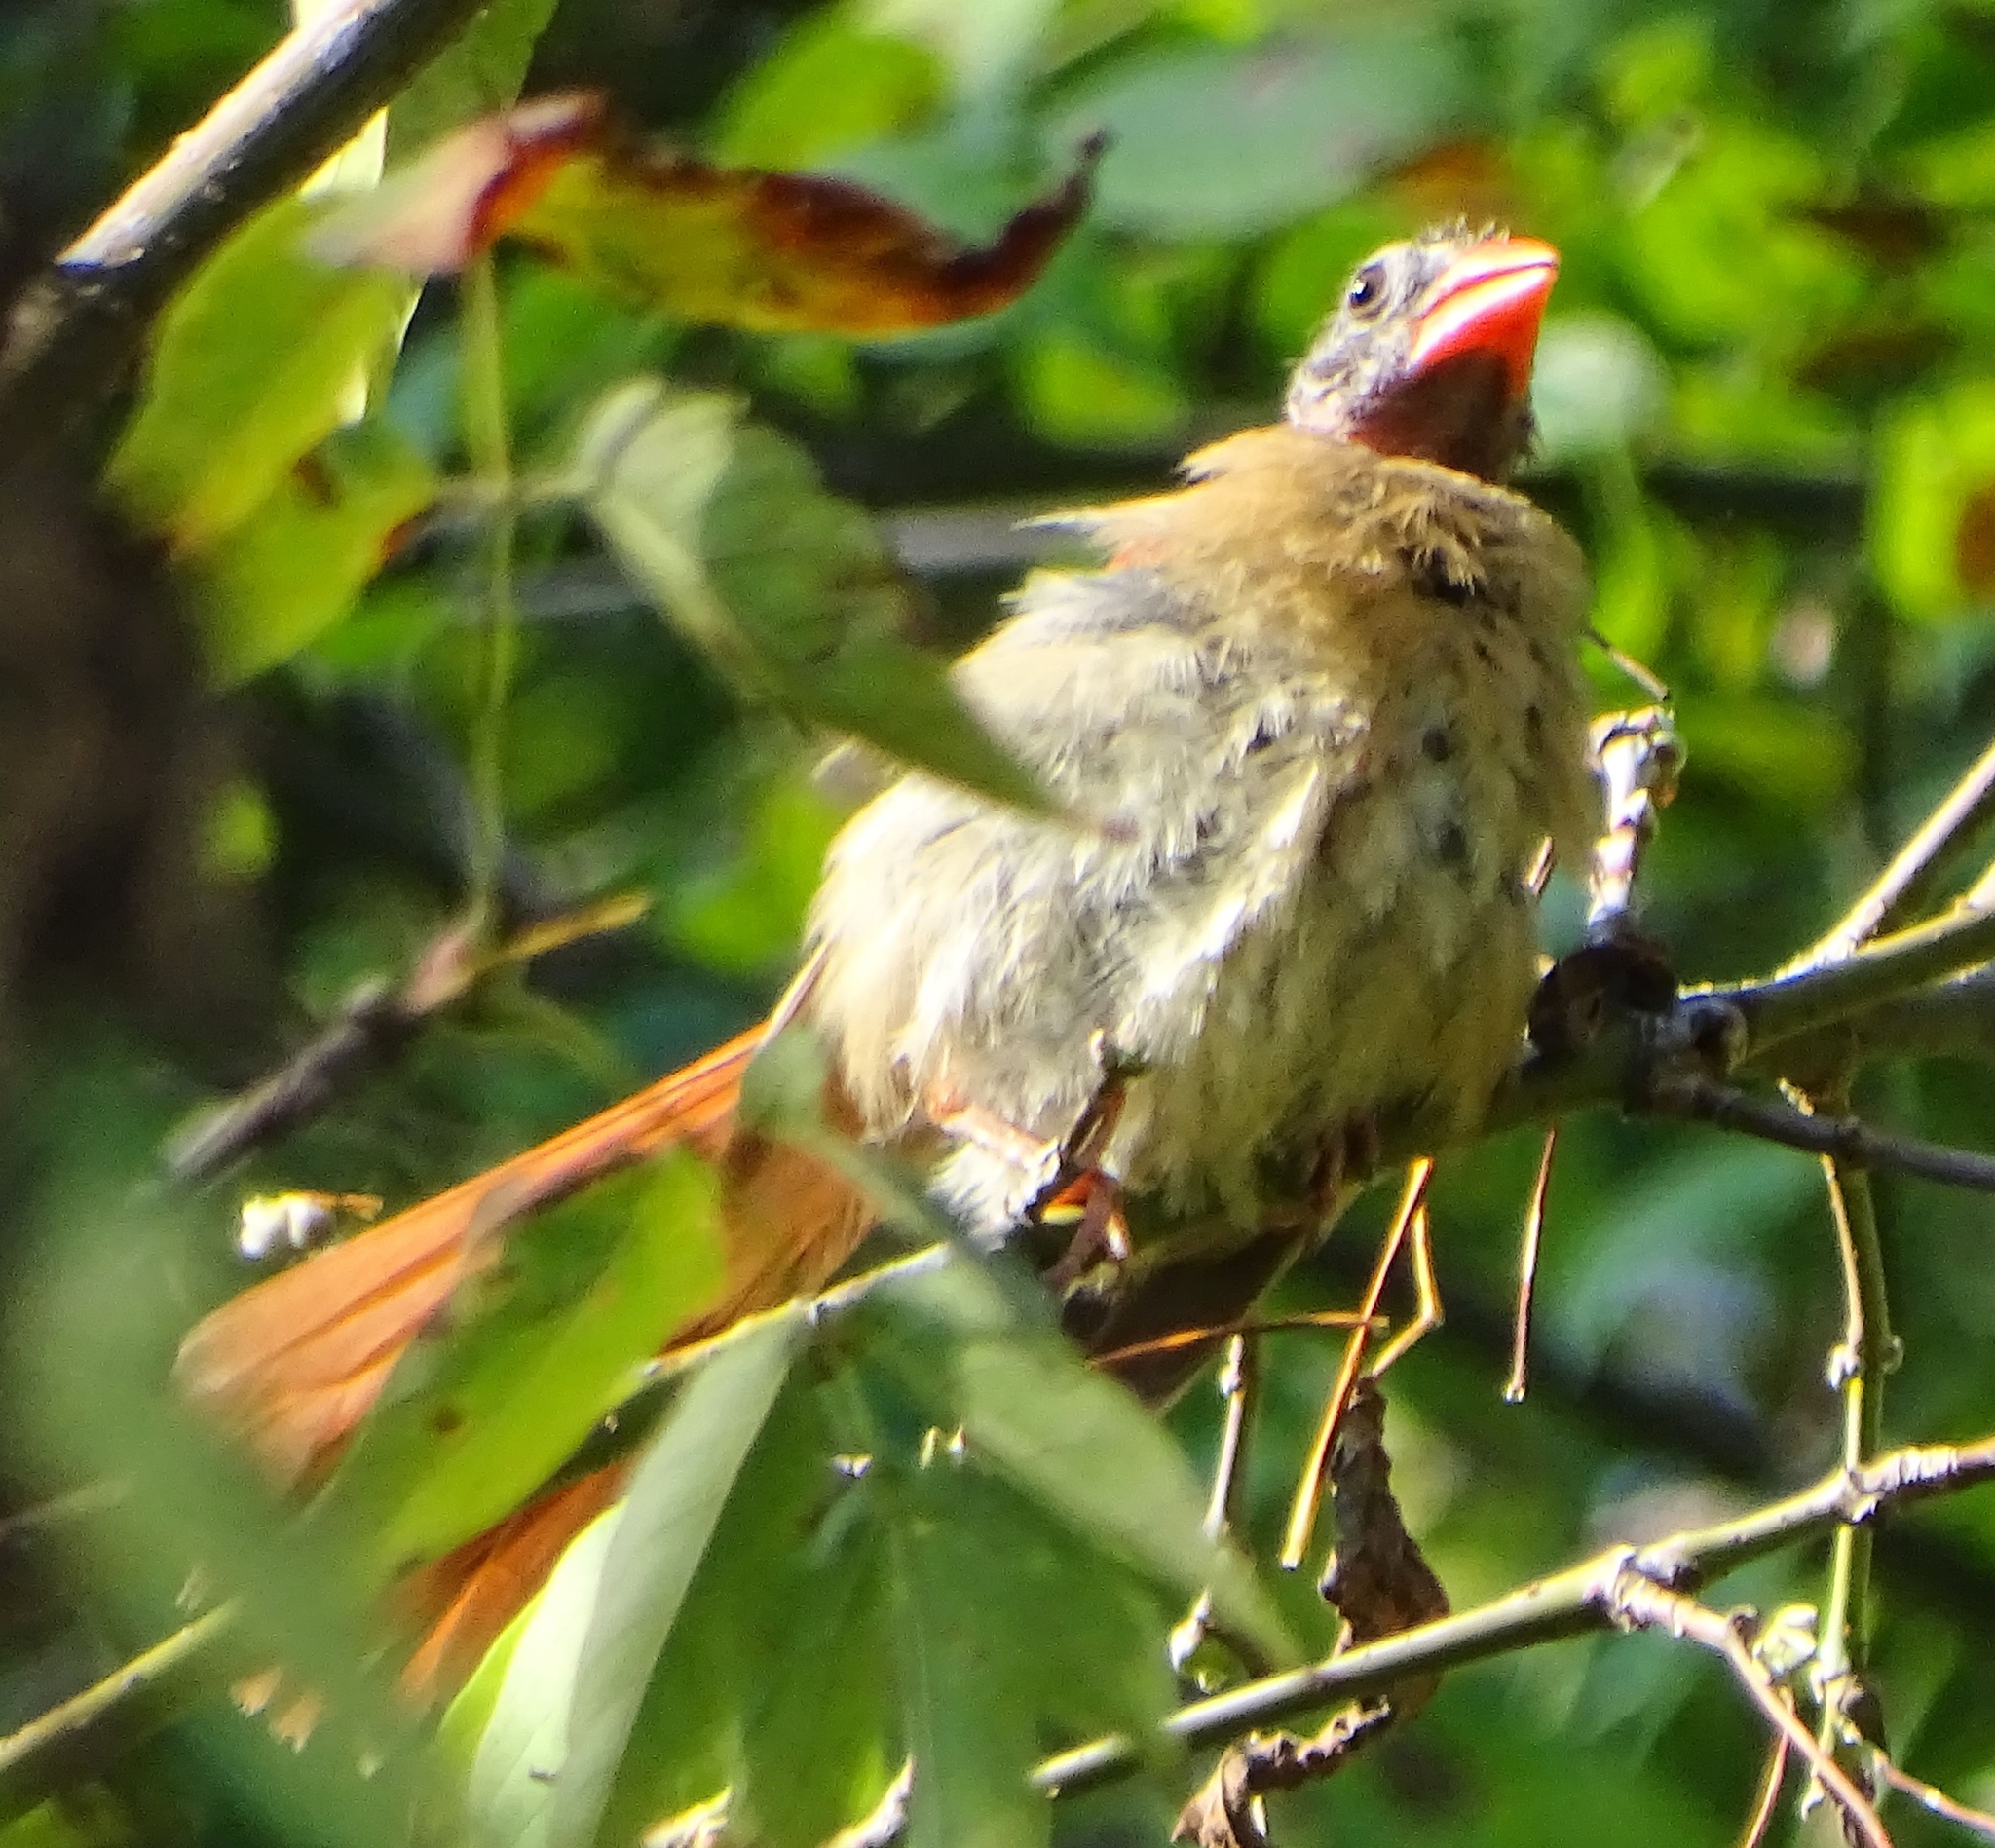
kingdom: Animalia
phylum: Chordata
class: Aves
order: Passeriformes
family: Cardinalidae
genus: Cardinalis
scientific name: Cardinalis cardinalis
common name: Northern cardinal
